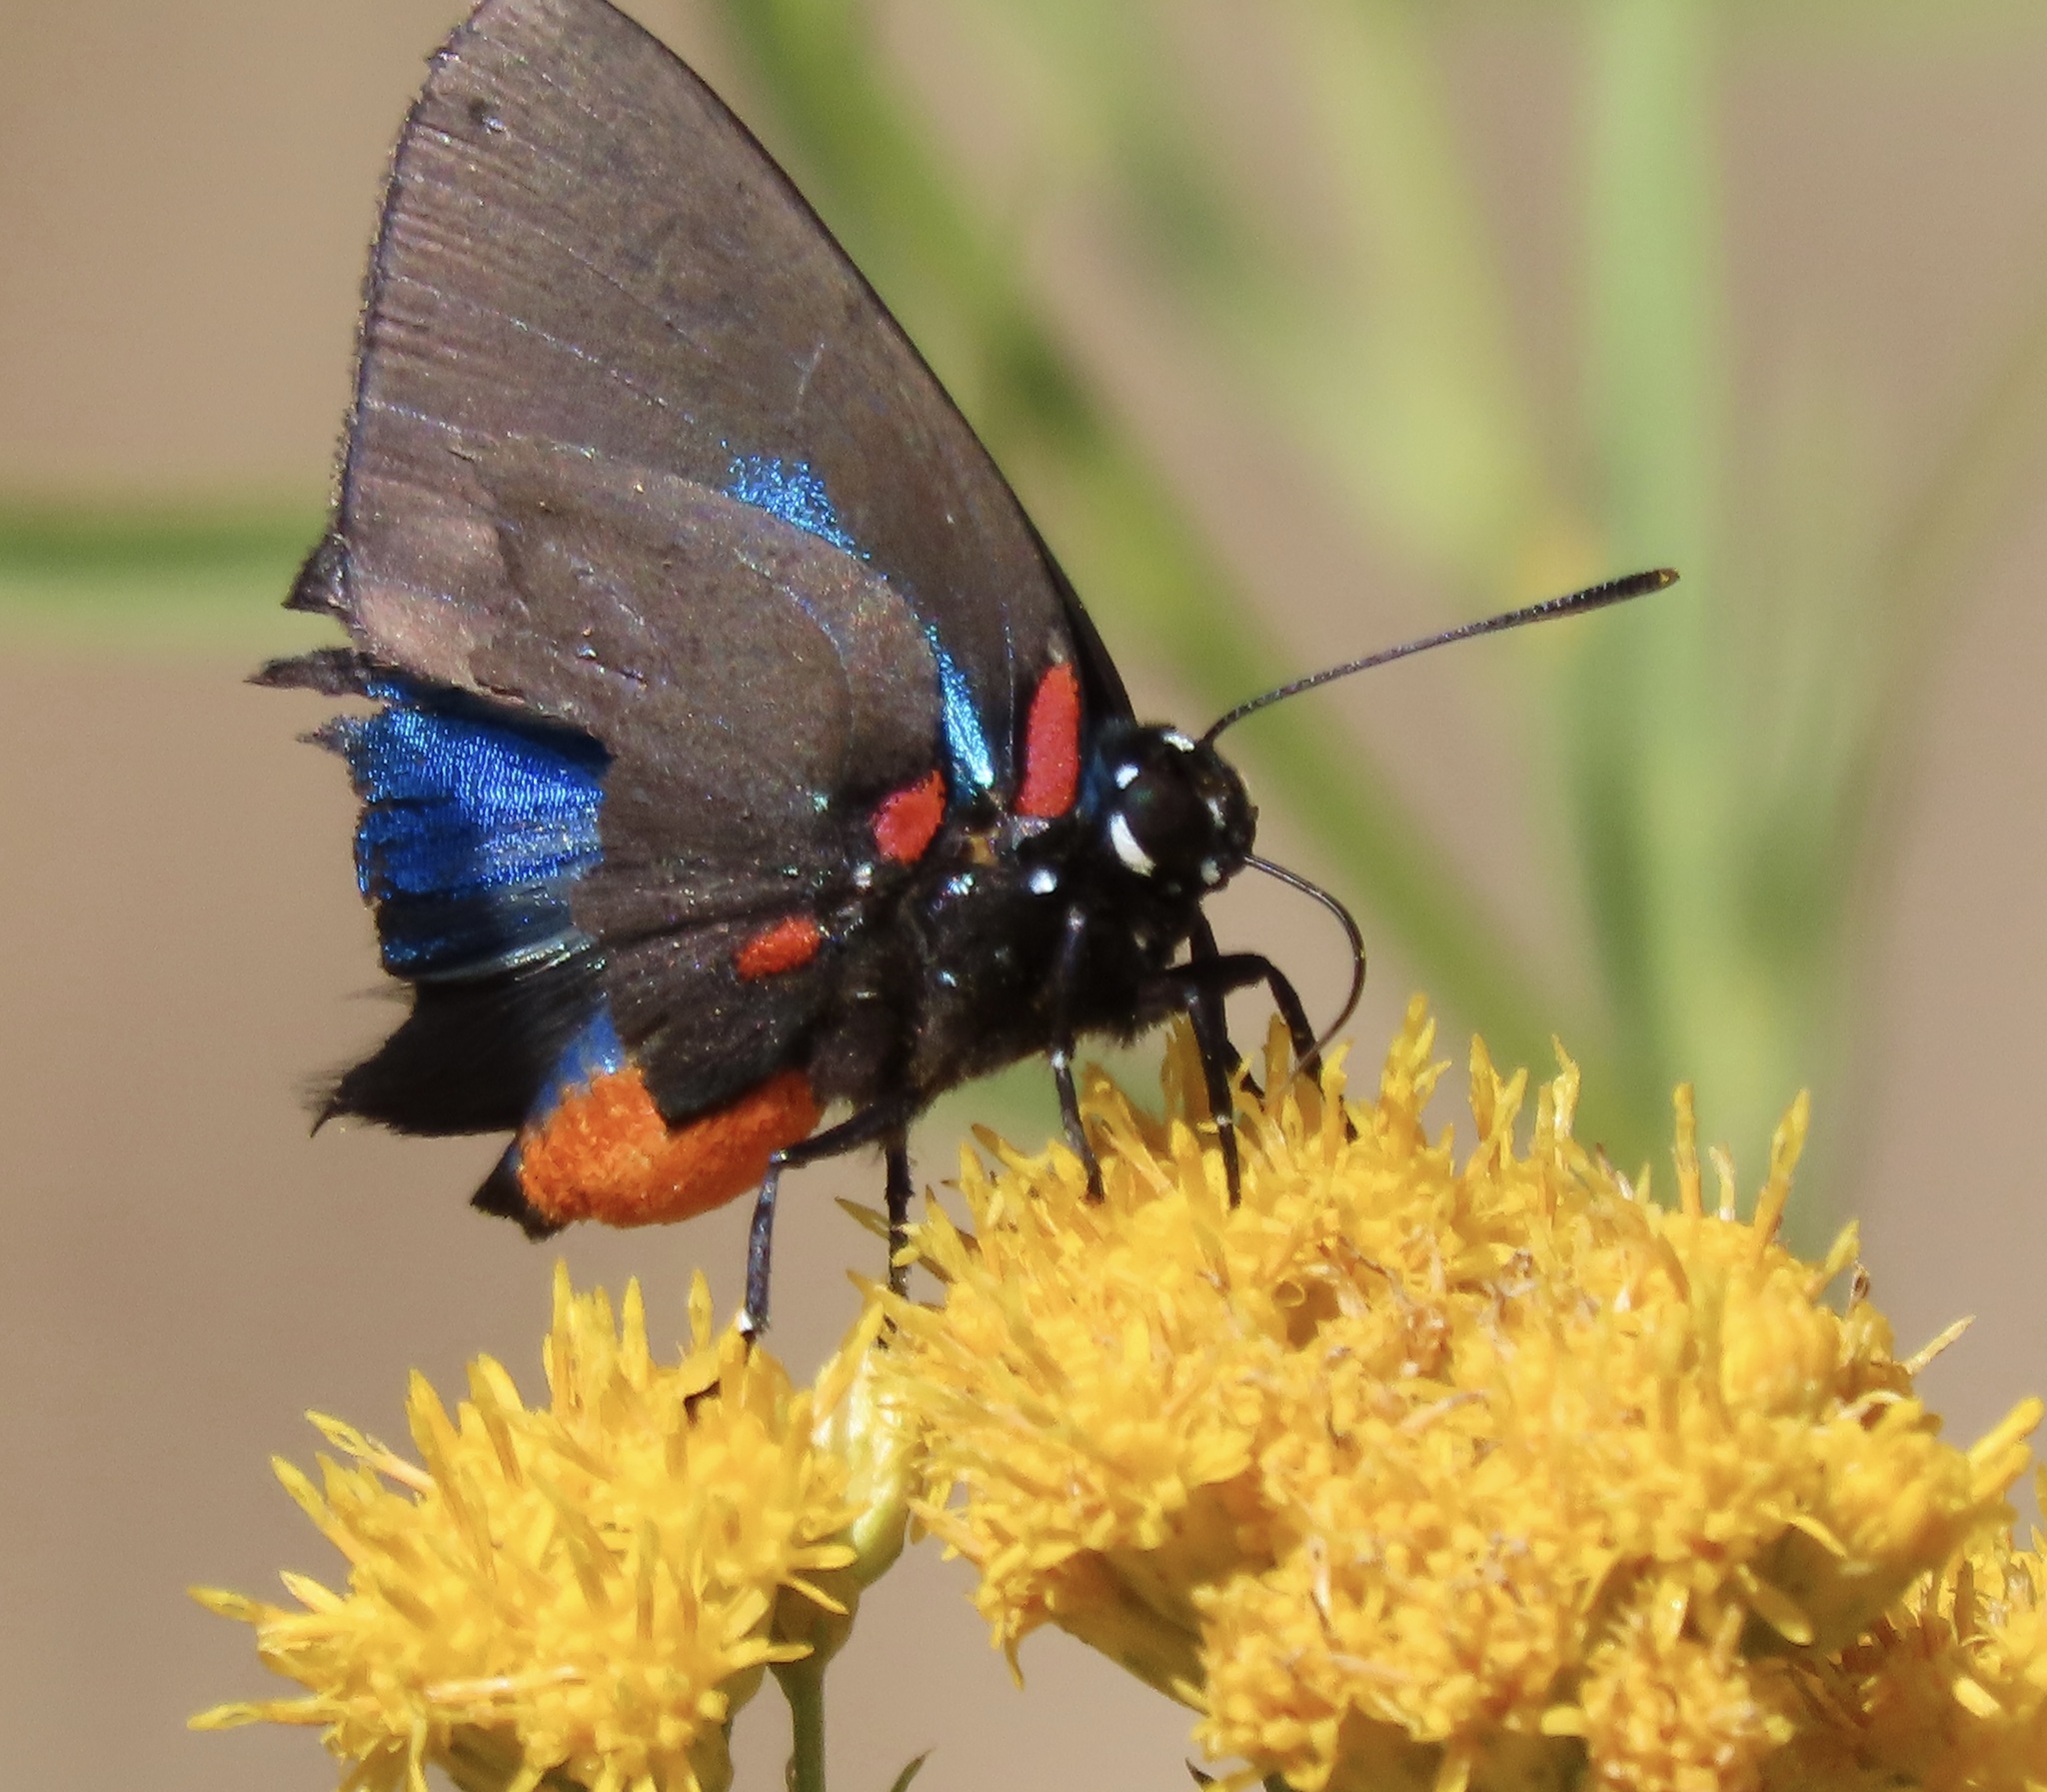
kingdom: Animalia
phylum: Arthropoda
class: Insecta
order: Lepidoptera
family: Lycaenidae
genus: Atlides
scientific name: Atlides halesus
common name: Great purple hairstreak
